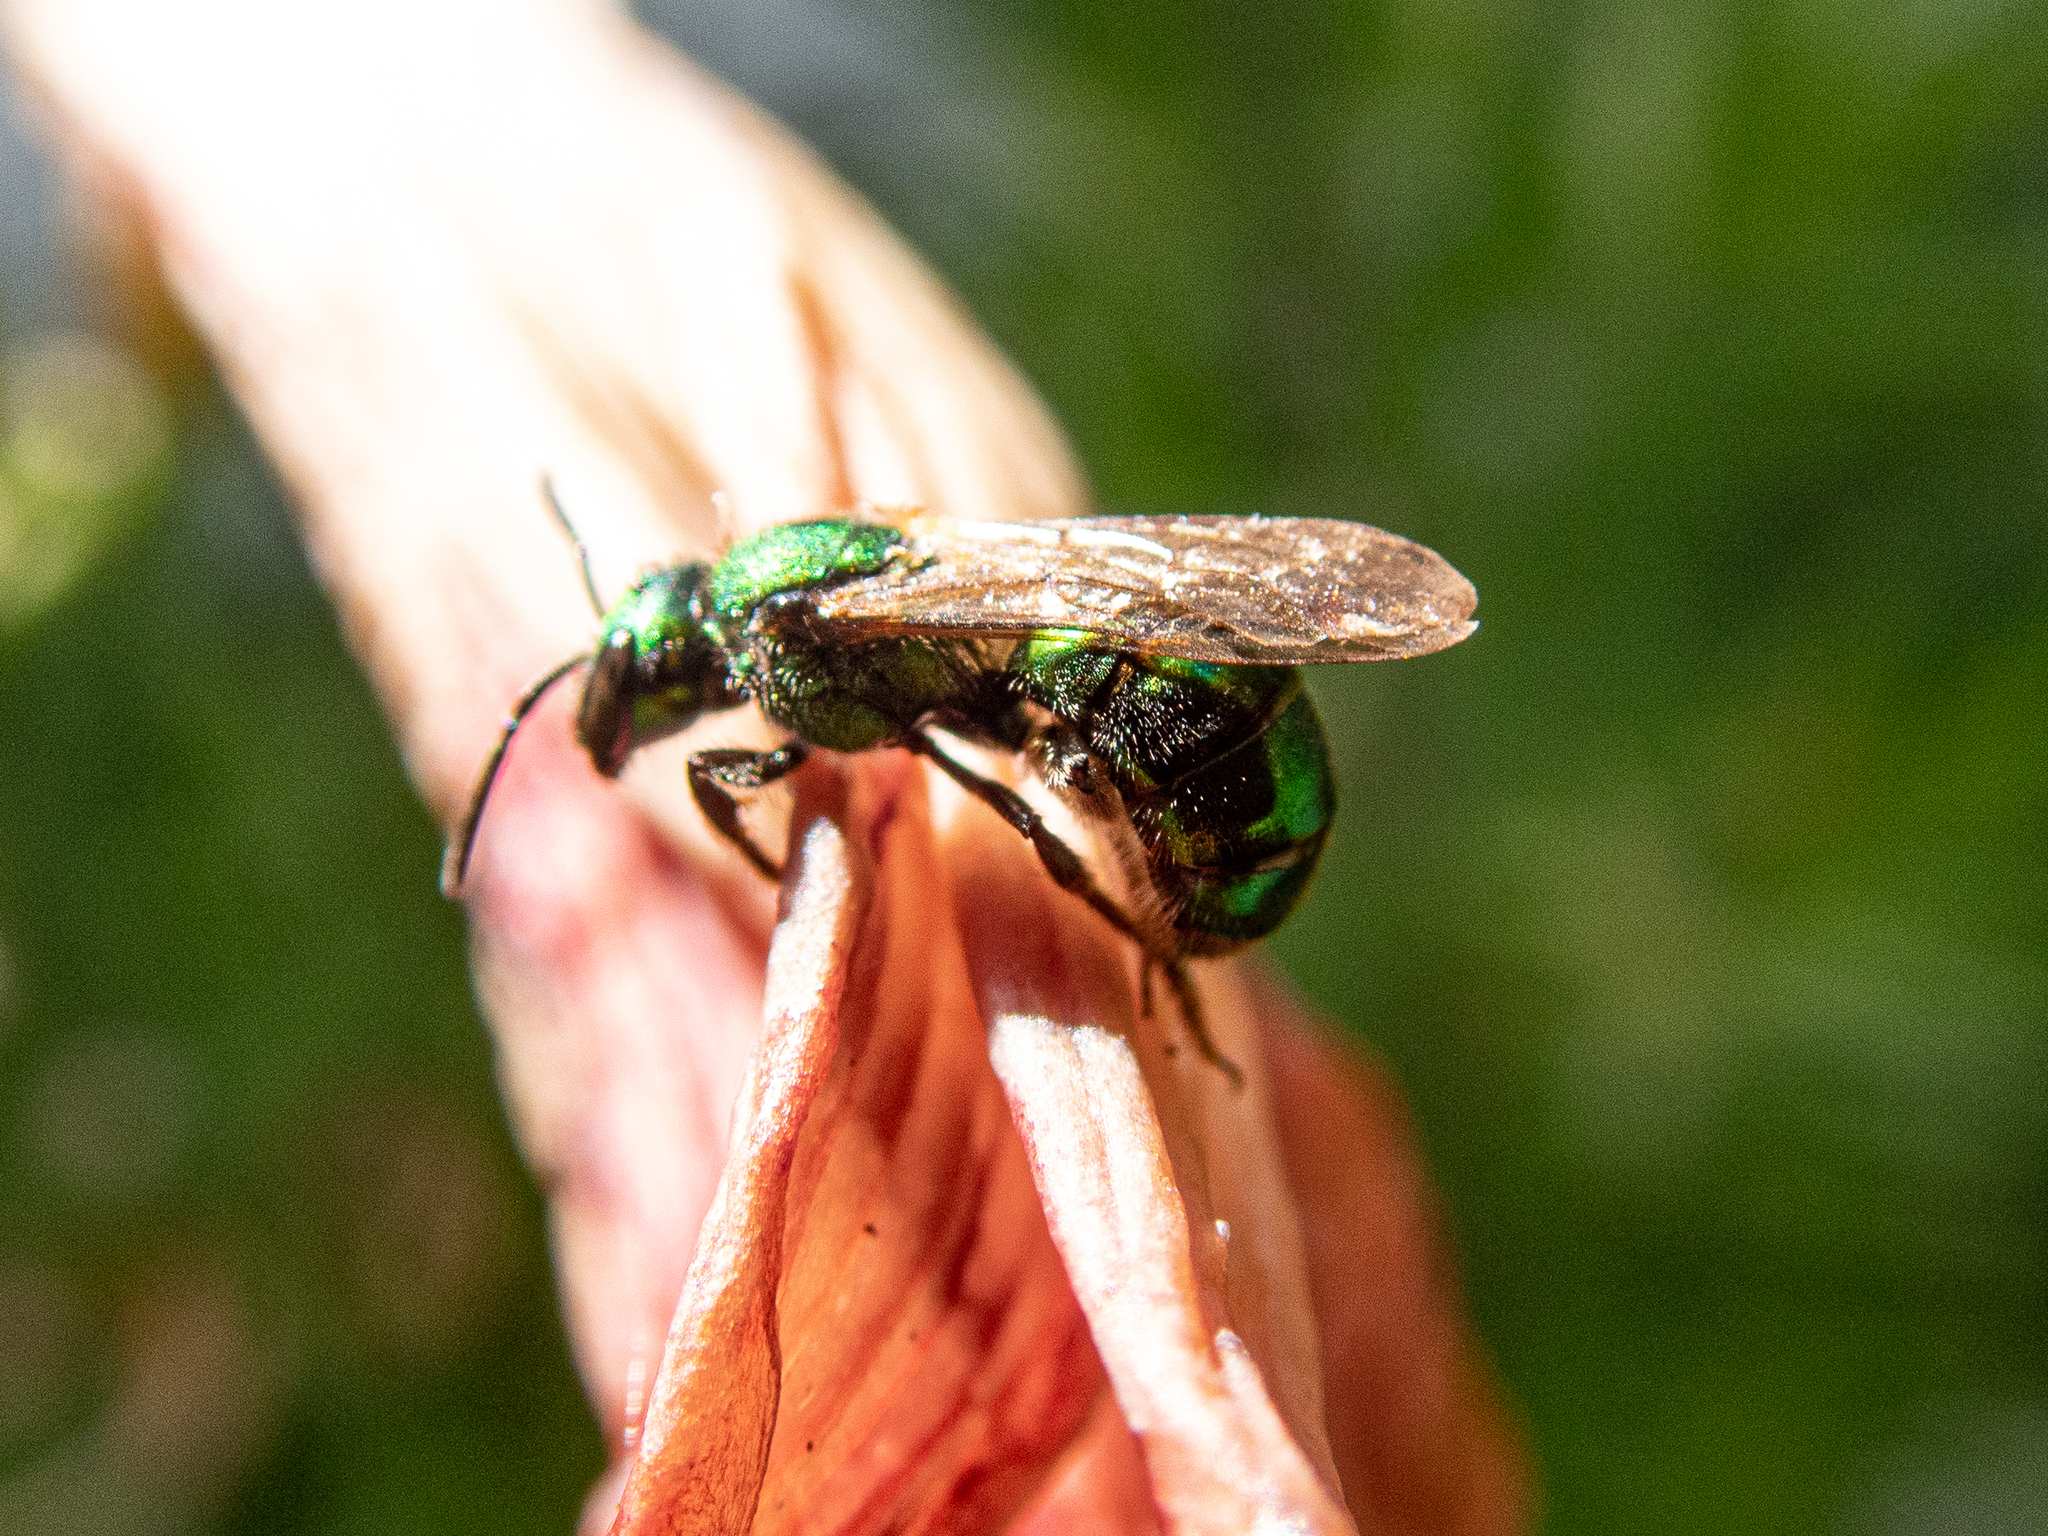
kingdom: Animalia
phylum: Arthropoda
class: Insecta
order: Hymenoptera
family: Halictidae
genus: Augochlora
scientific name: Augochlora pura
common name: Pure green sweat bee
